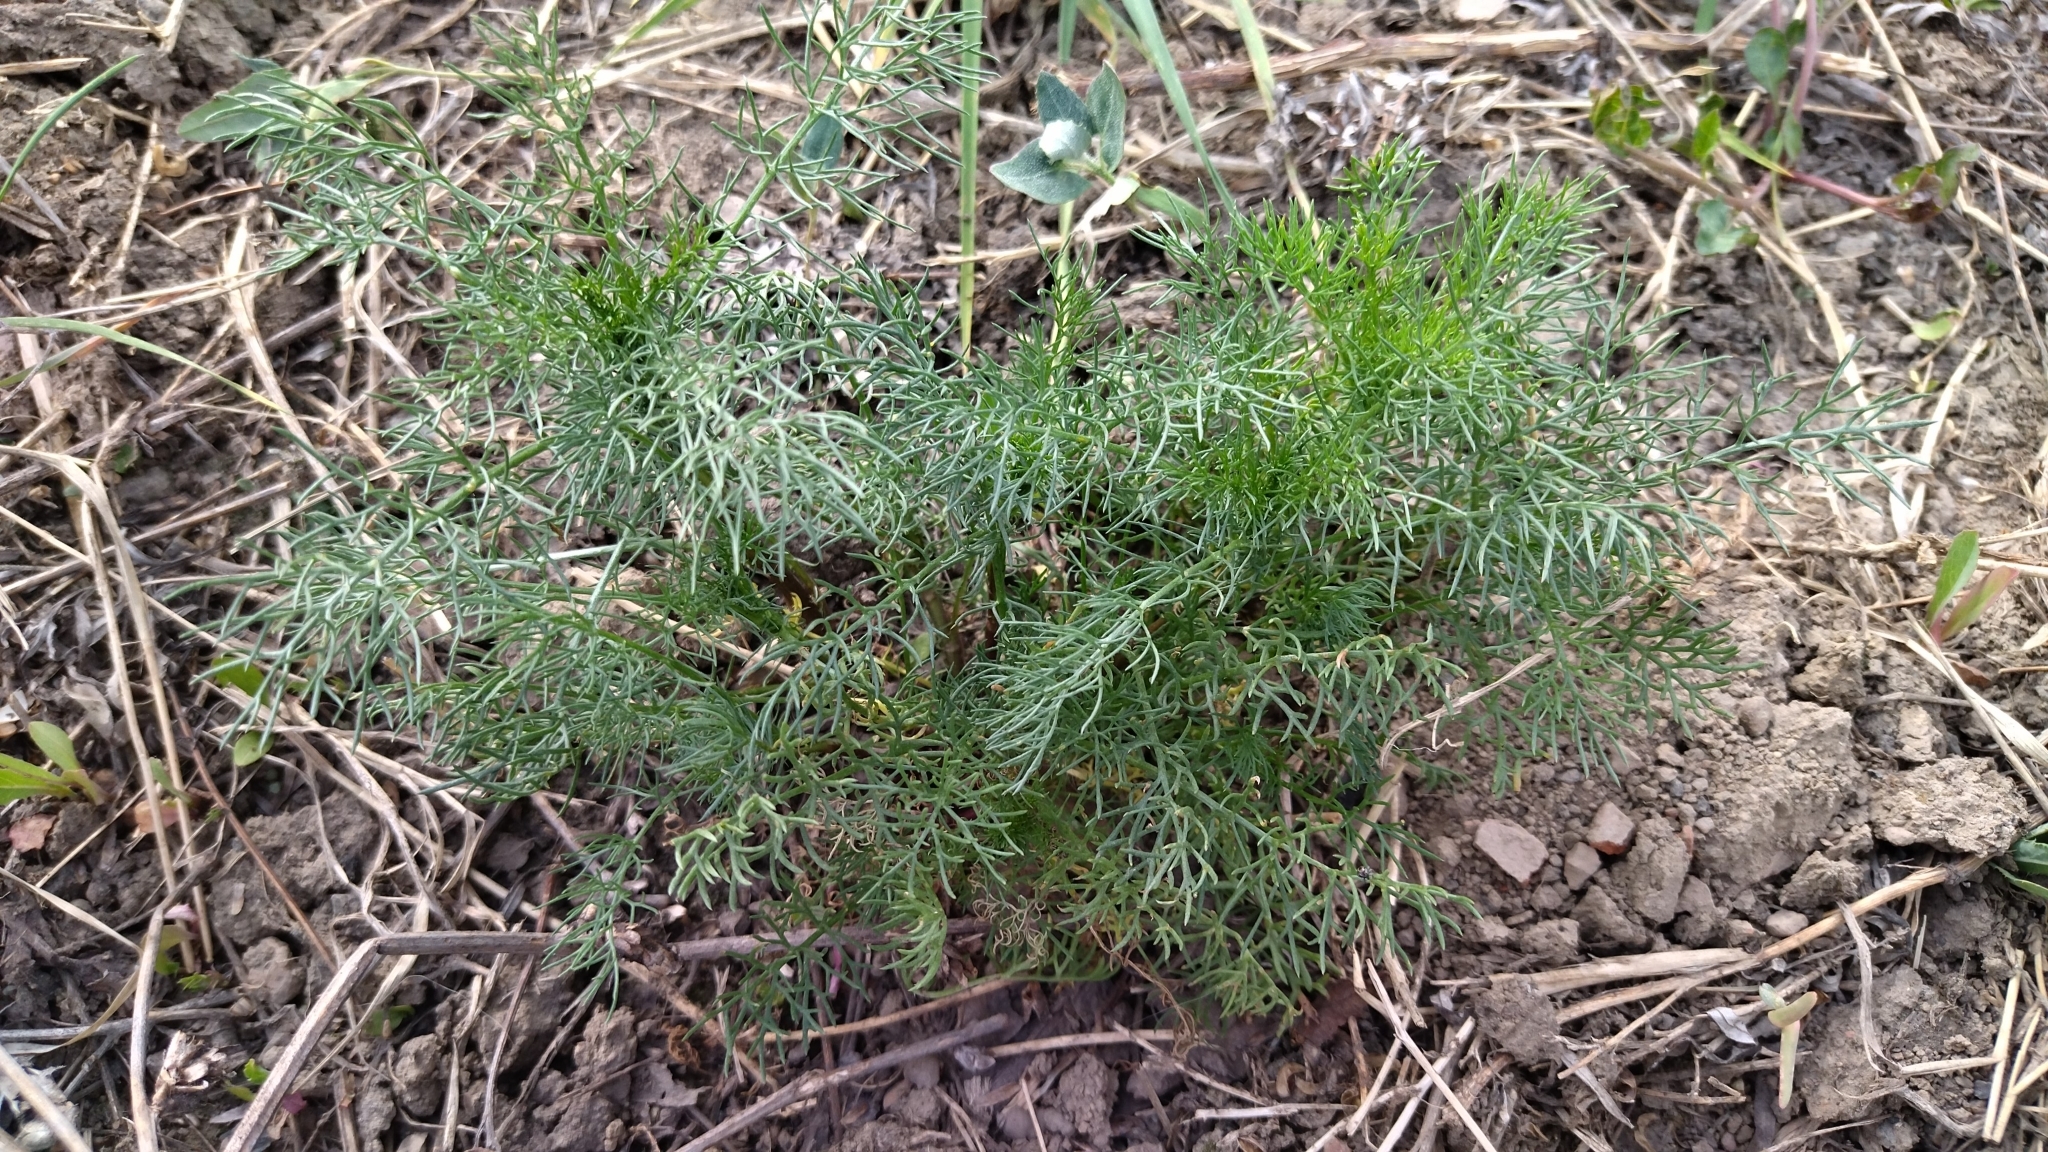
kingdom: Plantae
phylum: Tracheophyta
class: Magnoliopsida
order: Asterales
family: Asteraceae
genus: Tripleurospermum
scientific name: Tripleurospermum inodorum
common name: Scentless mayweed
